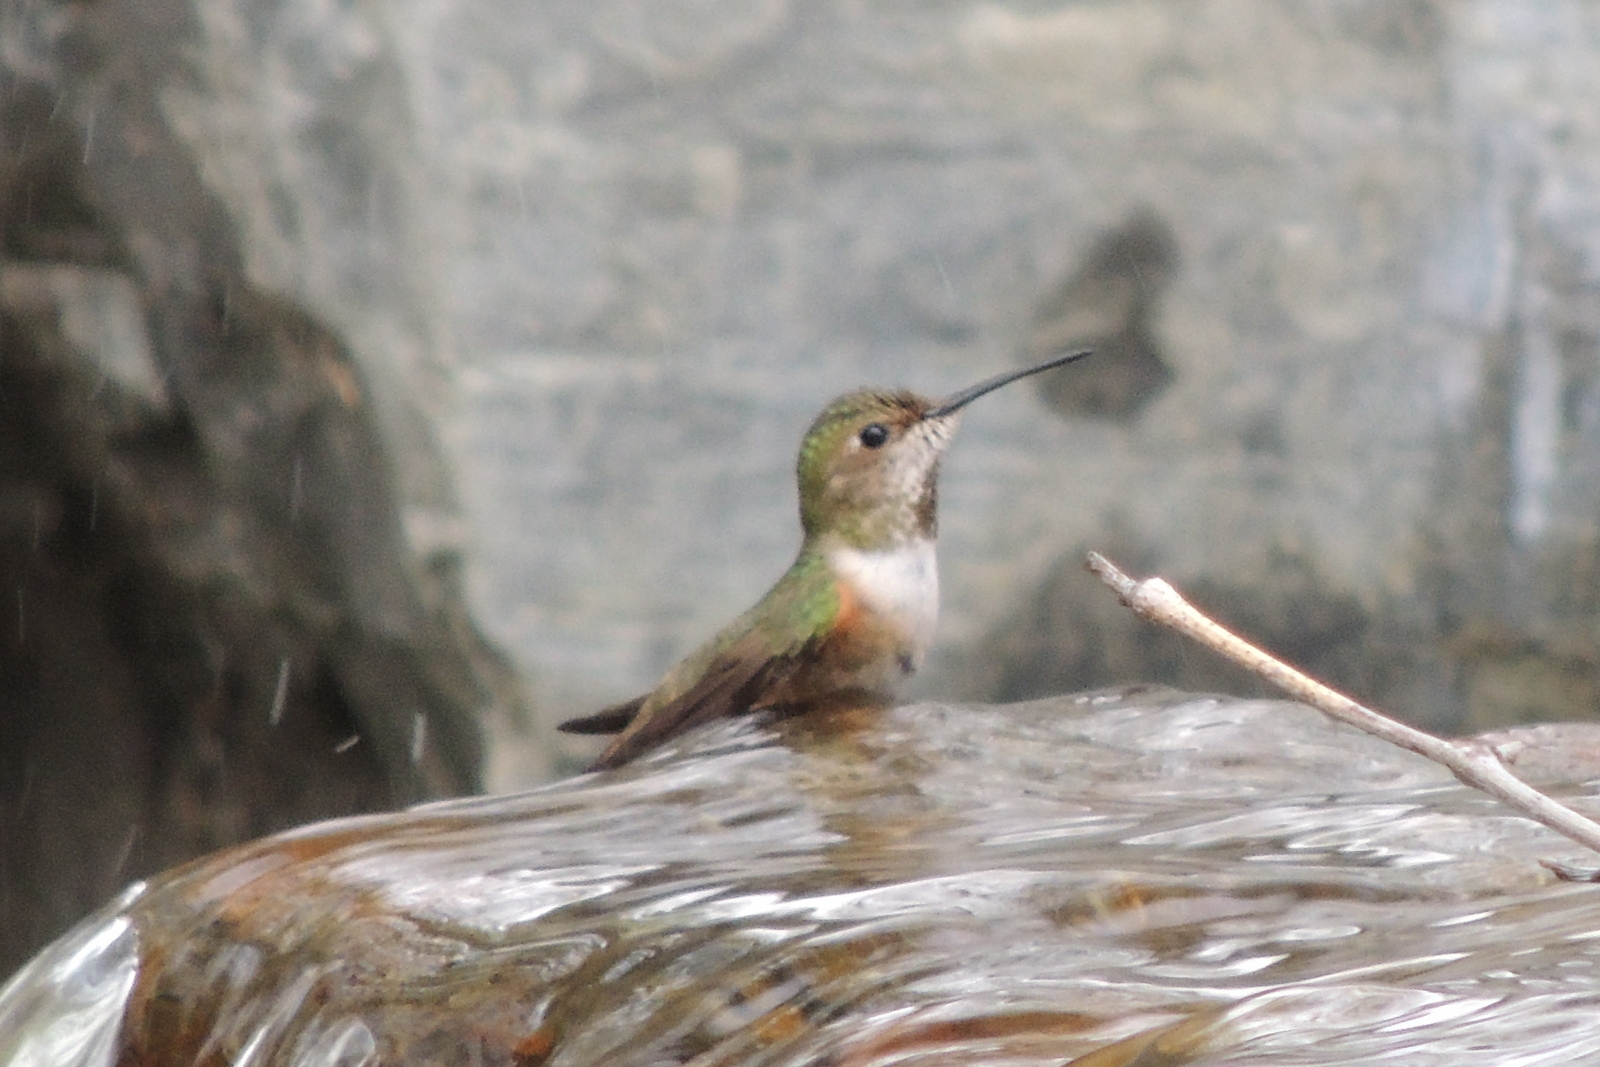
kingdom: Animalia
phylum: Chordata
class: Aves
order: Apodiformes
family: Trochilidae
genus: Selasphorus
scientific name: Selasphorus sasin
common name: Allen's hummingbird
